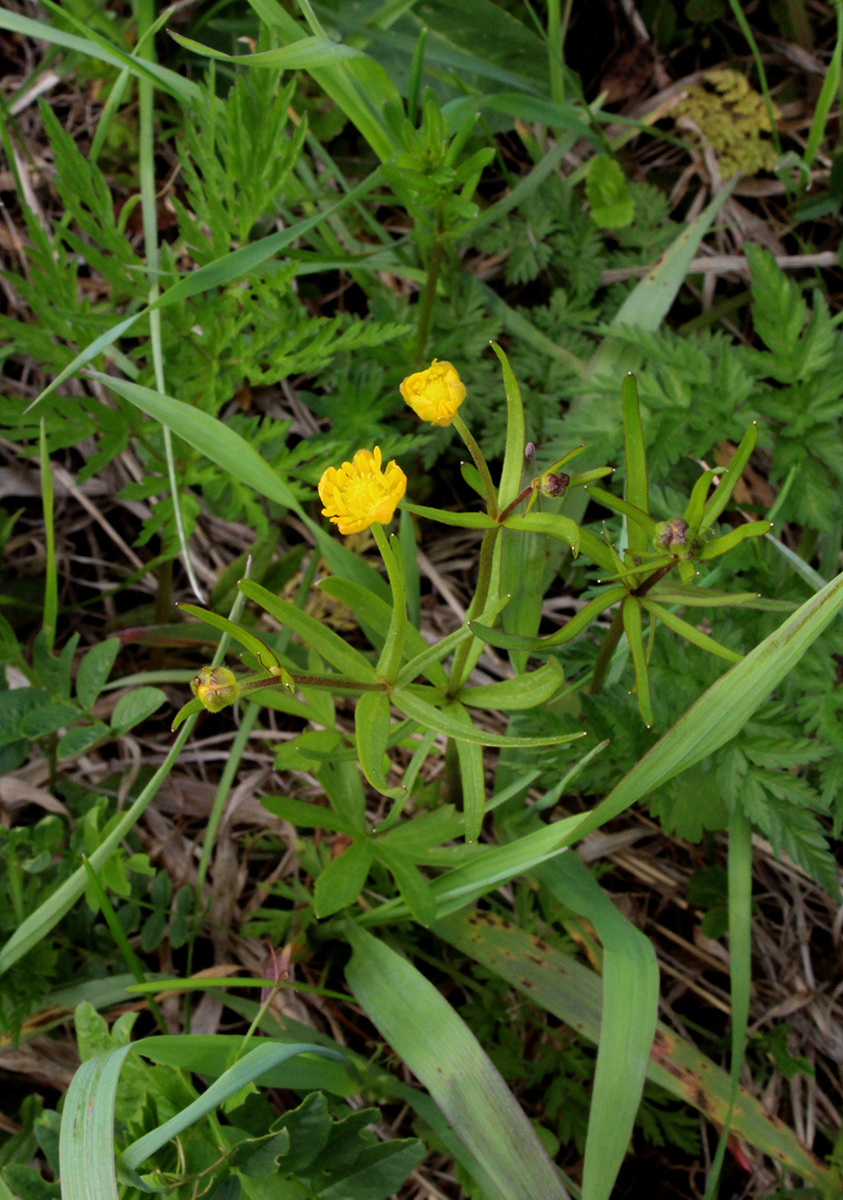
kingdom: Plantae
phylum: Tracheophyta
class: Magnoliopsida
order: Ranunculales
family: Ranunculaceae
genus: Ranunculus
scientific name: Ranunculus auricomus
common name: Goldilocks buttercup
